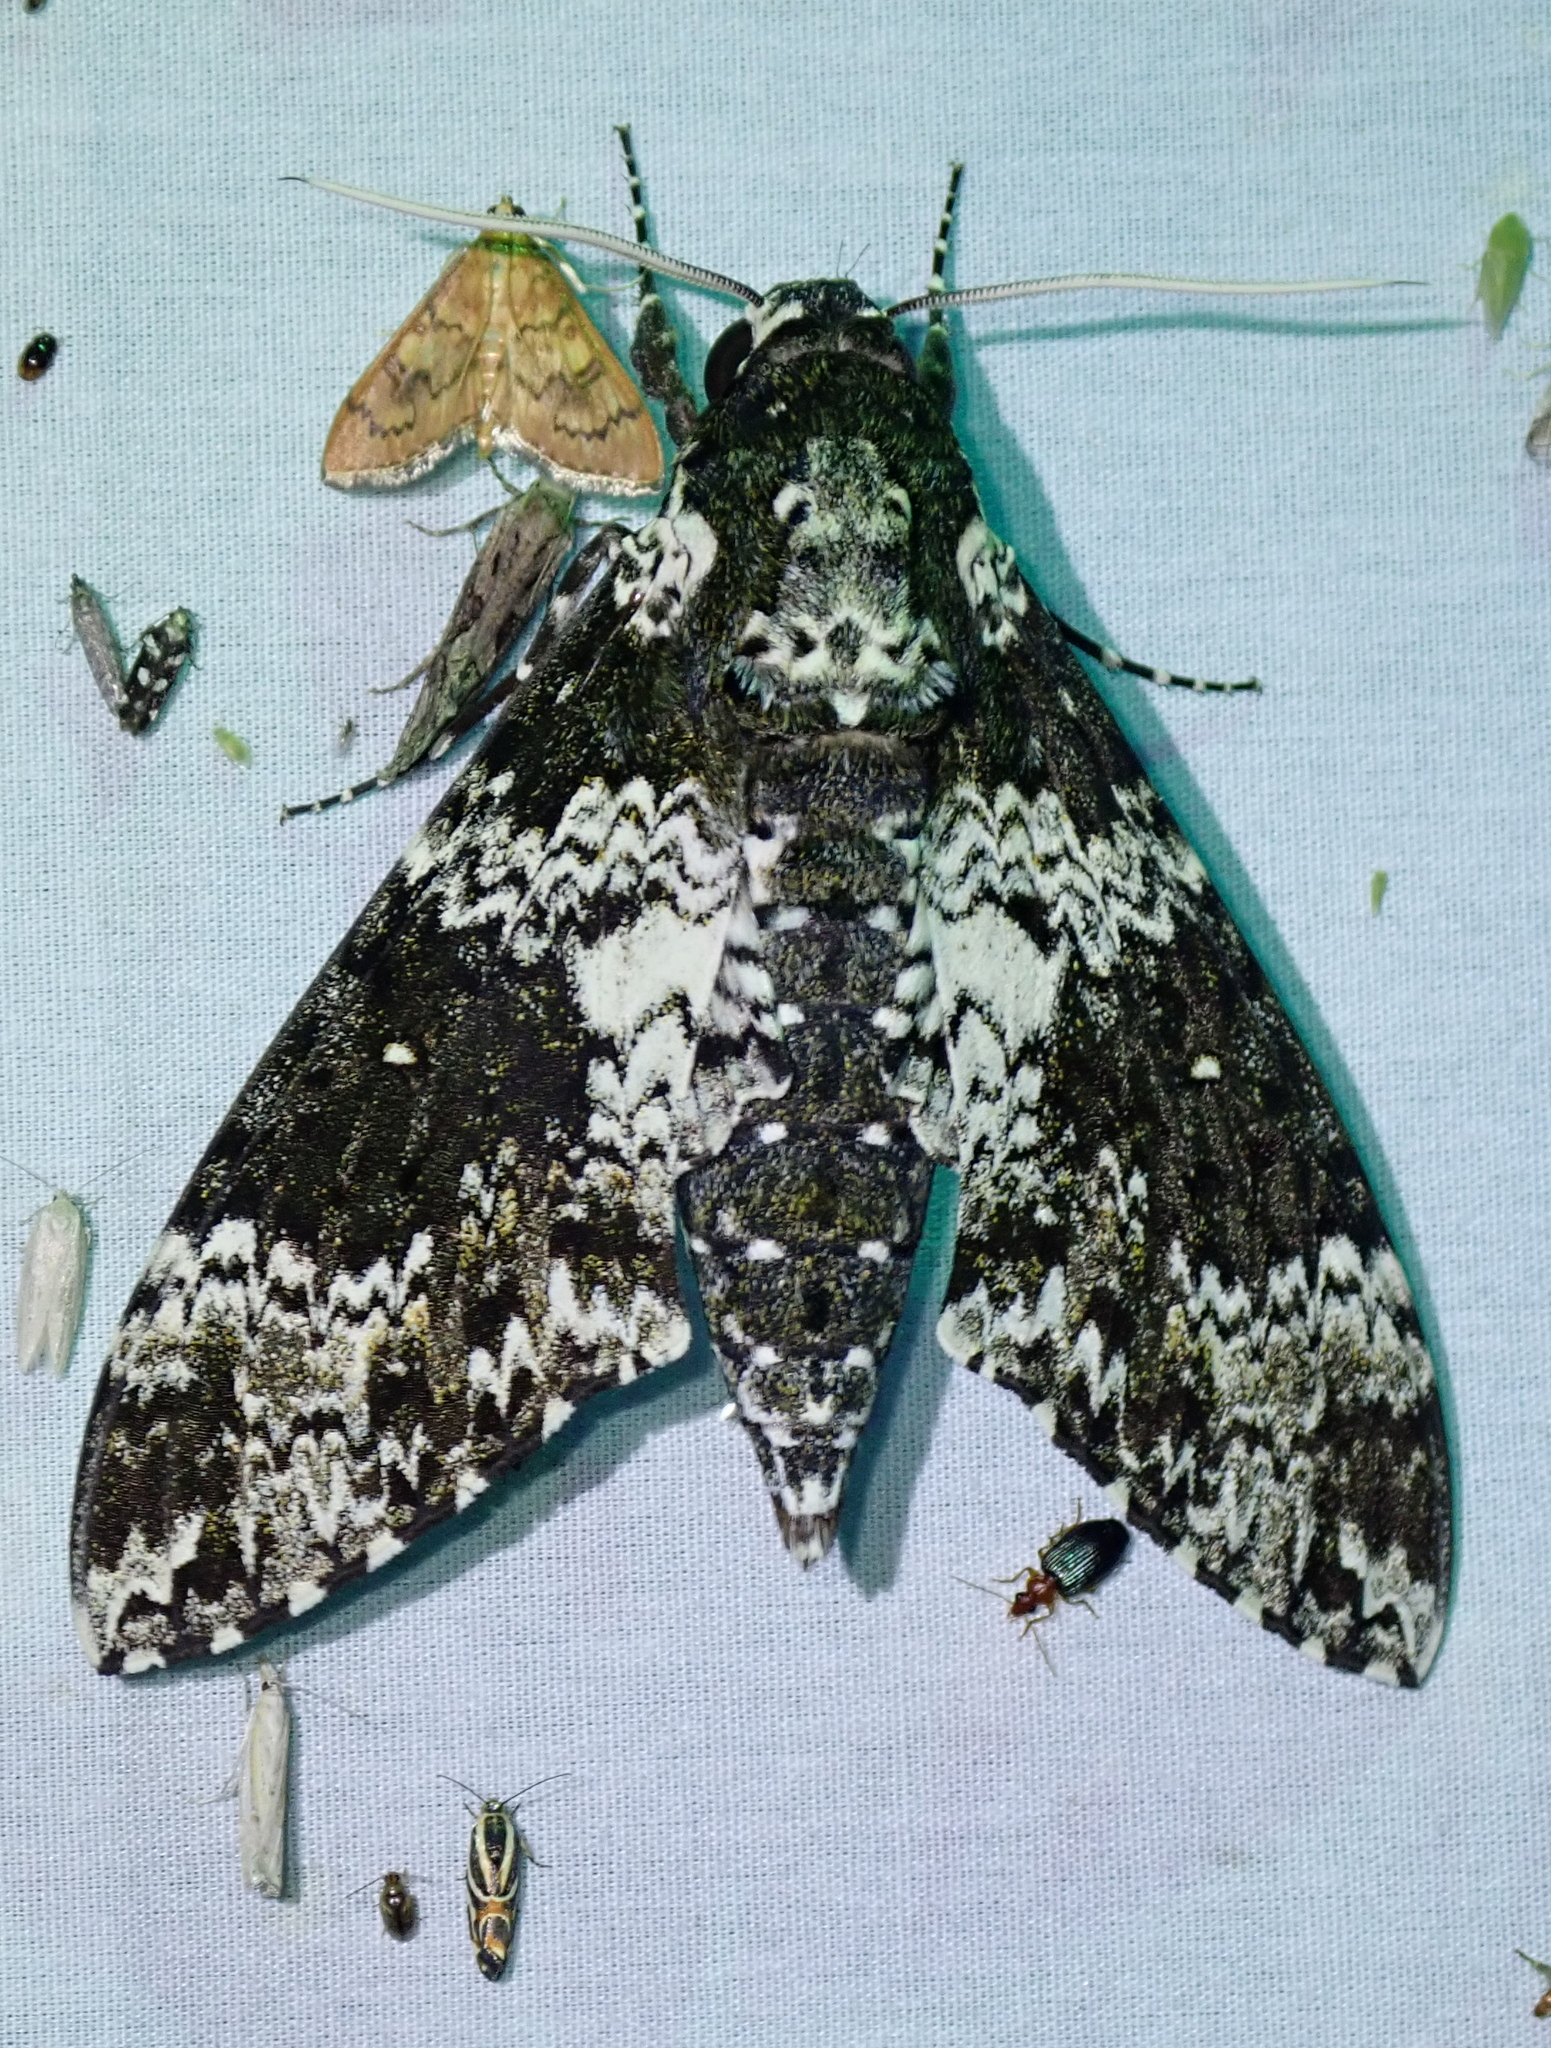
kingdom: Animalia
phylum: Arthropoda
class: Insecta
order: Lepidoptera
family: Sphingidae
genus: Manduca
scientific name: Manduca rustica
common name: Rustic sphinx
